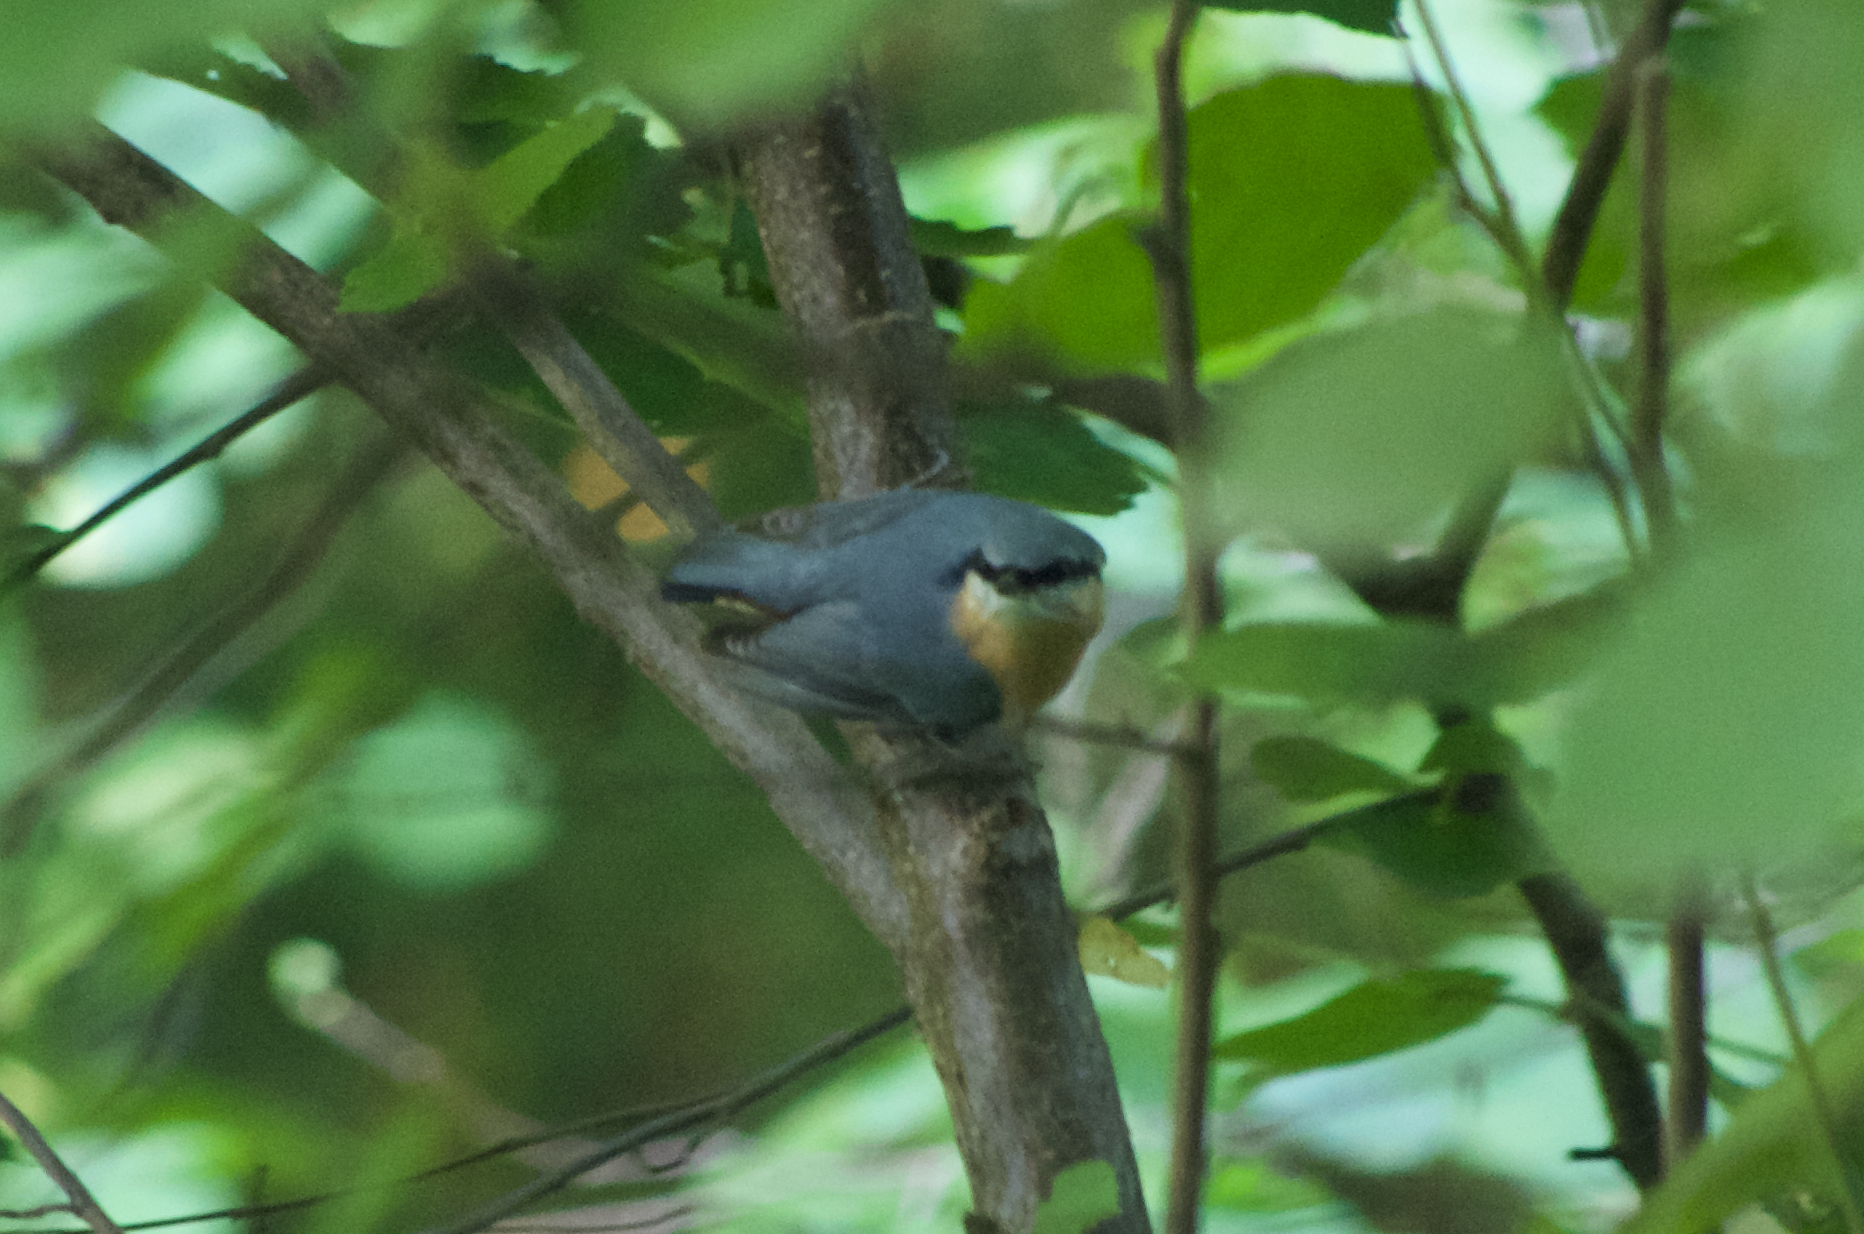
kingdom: Animalia
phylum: Chordata
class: Aves
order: Passeriformes
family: Sittidae
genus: Sitta
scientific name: Sitta europaea
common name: Eurasian nuthatch
